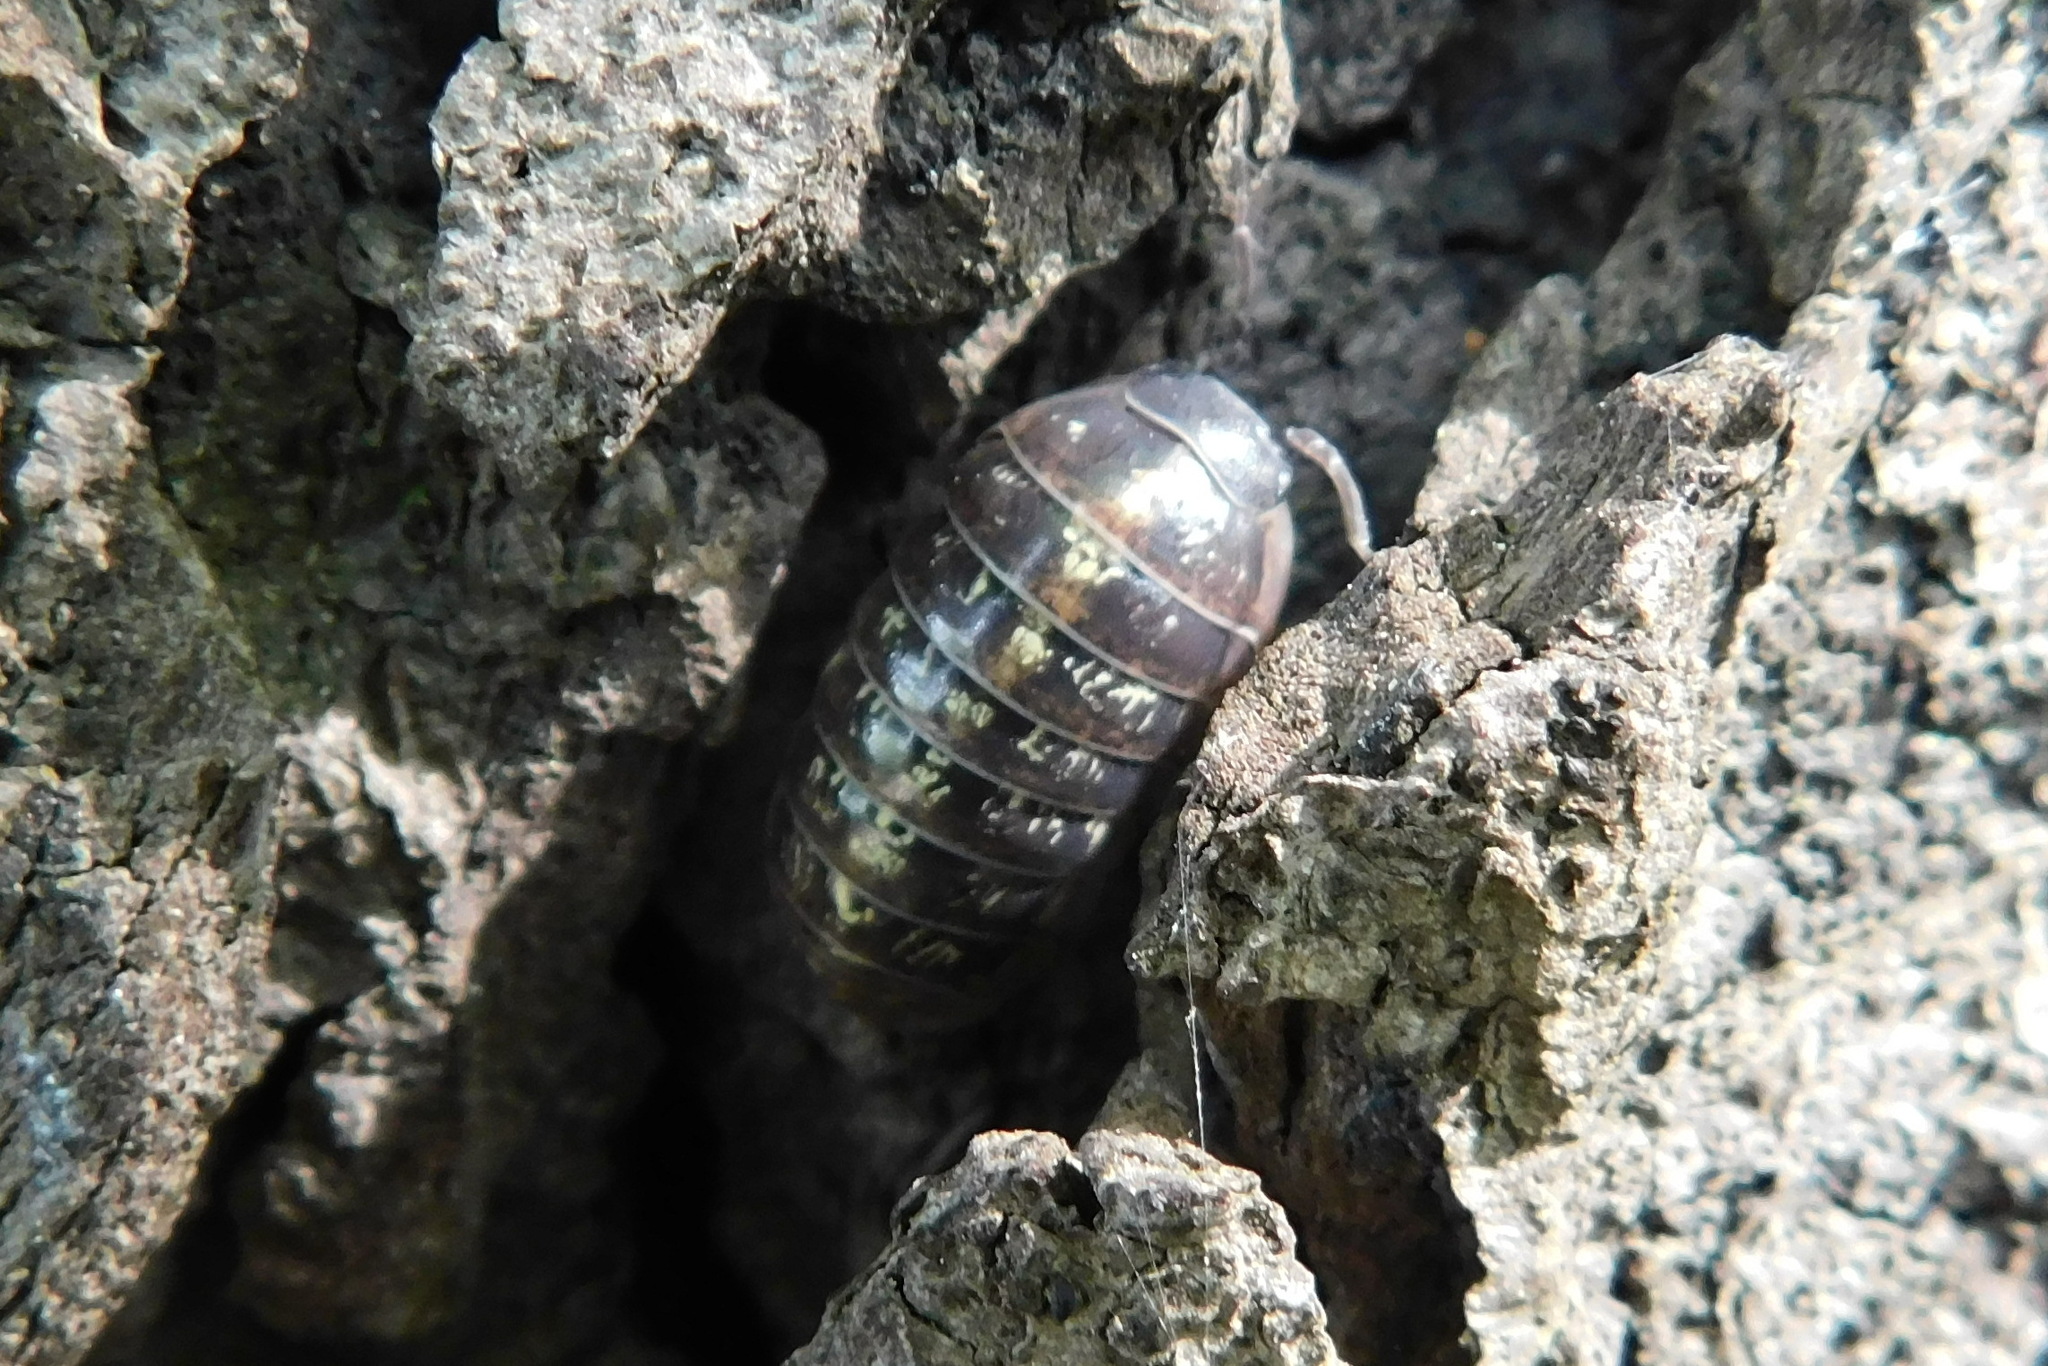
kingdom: Animalia
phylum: Arthropoda
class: Malacostraca
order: Isopoda
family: Armadillidiidae
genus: Armadillidium
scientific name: Armadillidium vulgare
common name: Common pill woodlouse
